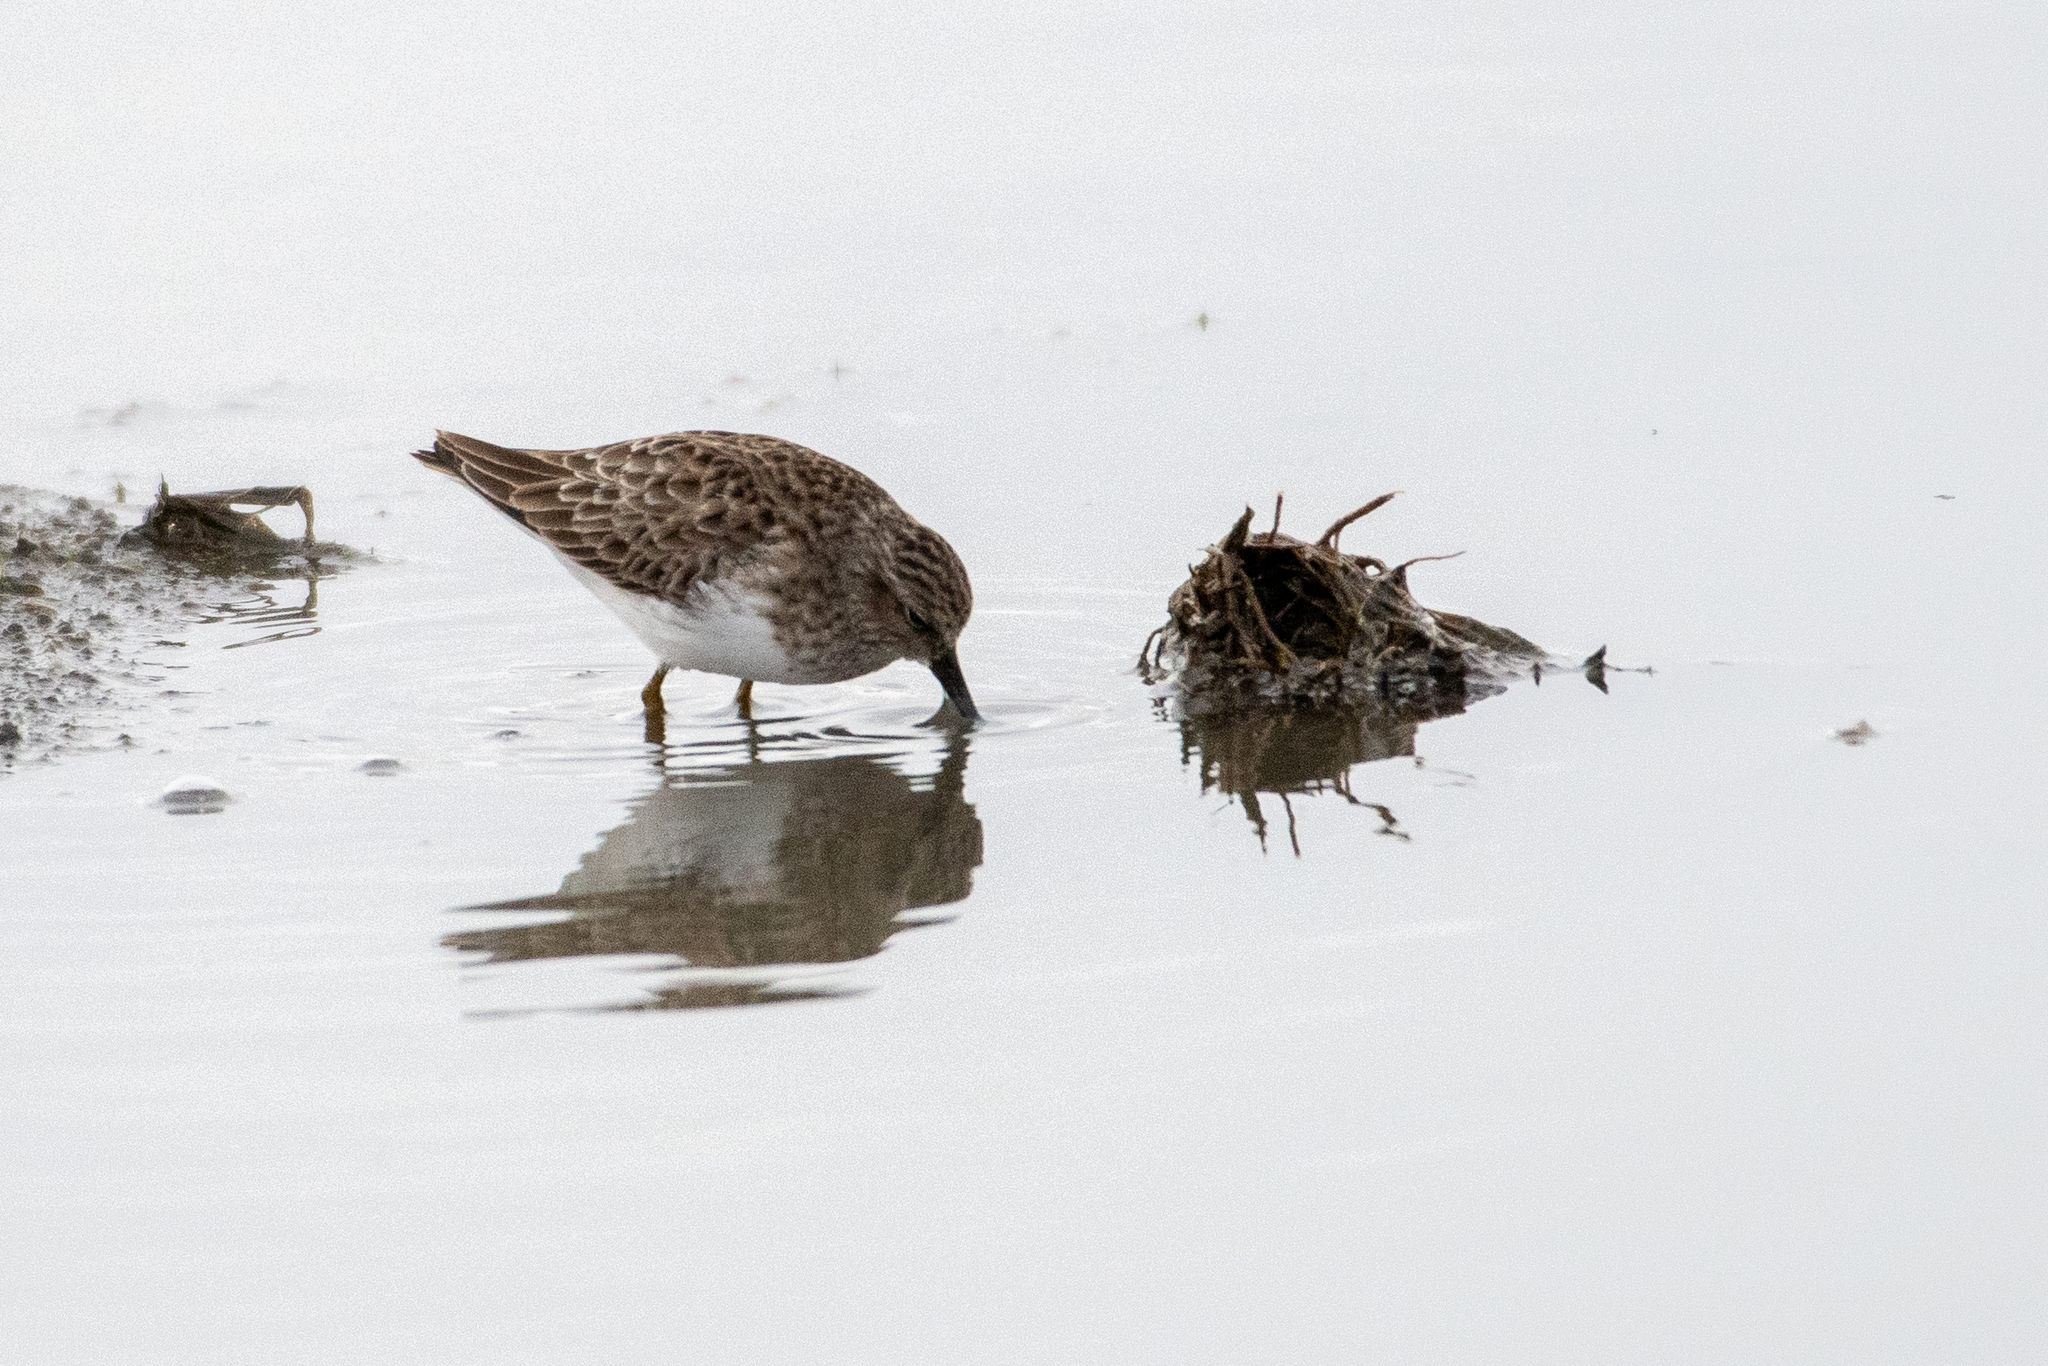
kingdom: Animalia
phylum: Chordata
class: Aves
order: Charadriiformes
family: Scolopacidae
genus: Calidris
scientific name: Calidris minutilla
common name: Least sandpiper
